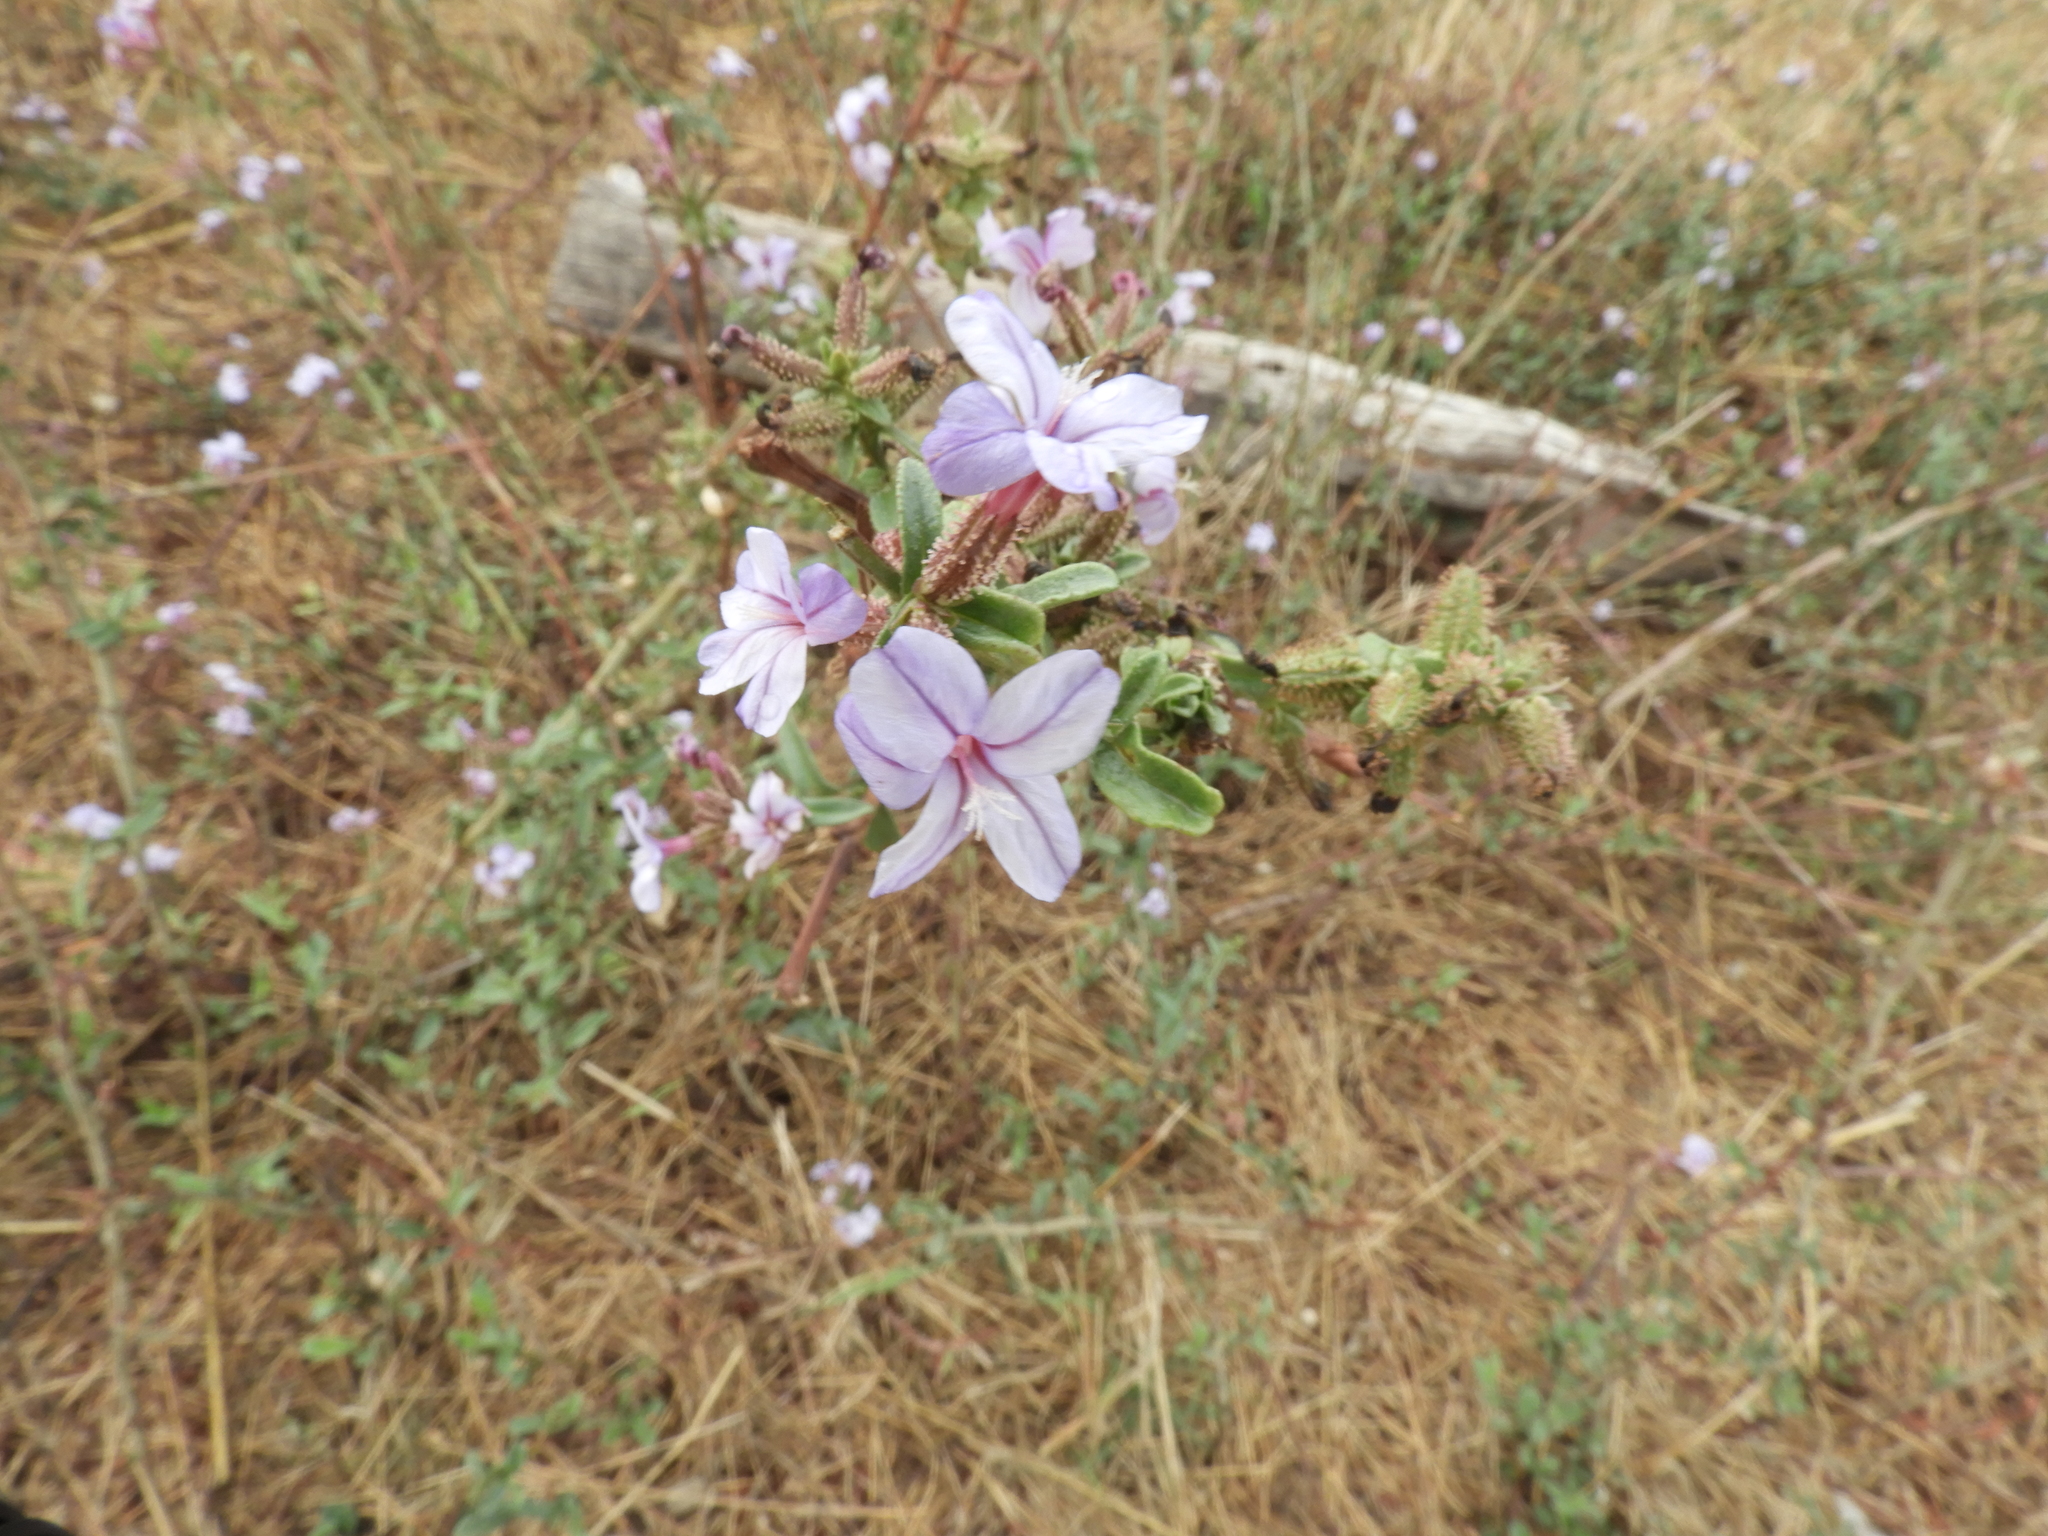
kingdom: Plantae
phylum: Tracheophyta
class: Magnoliopsida
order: Caryophyllales
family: Plumbaginaceae
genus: Plumbago
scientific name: Plumbago europaea
